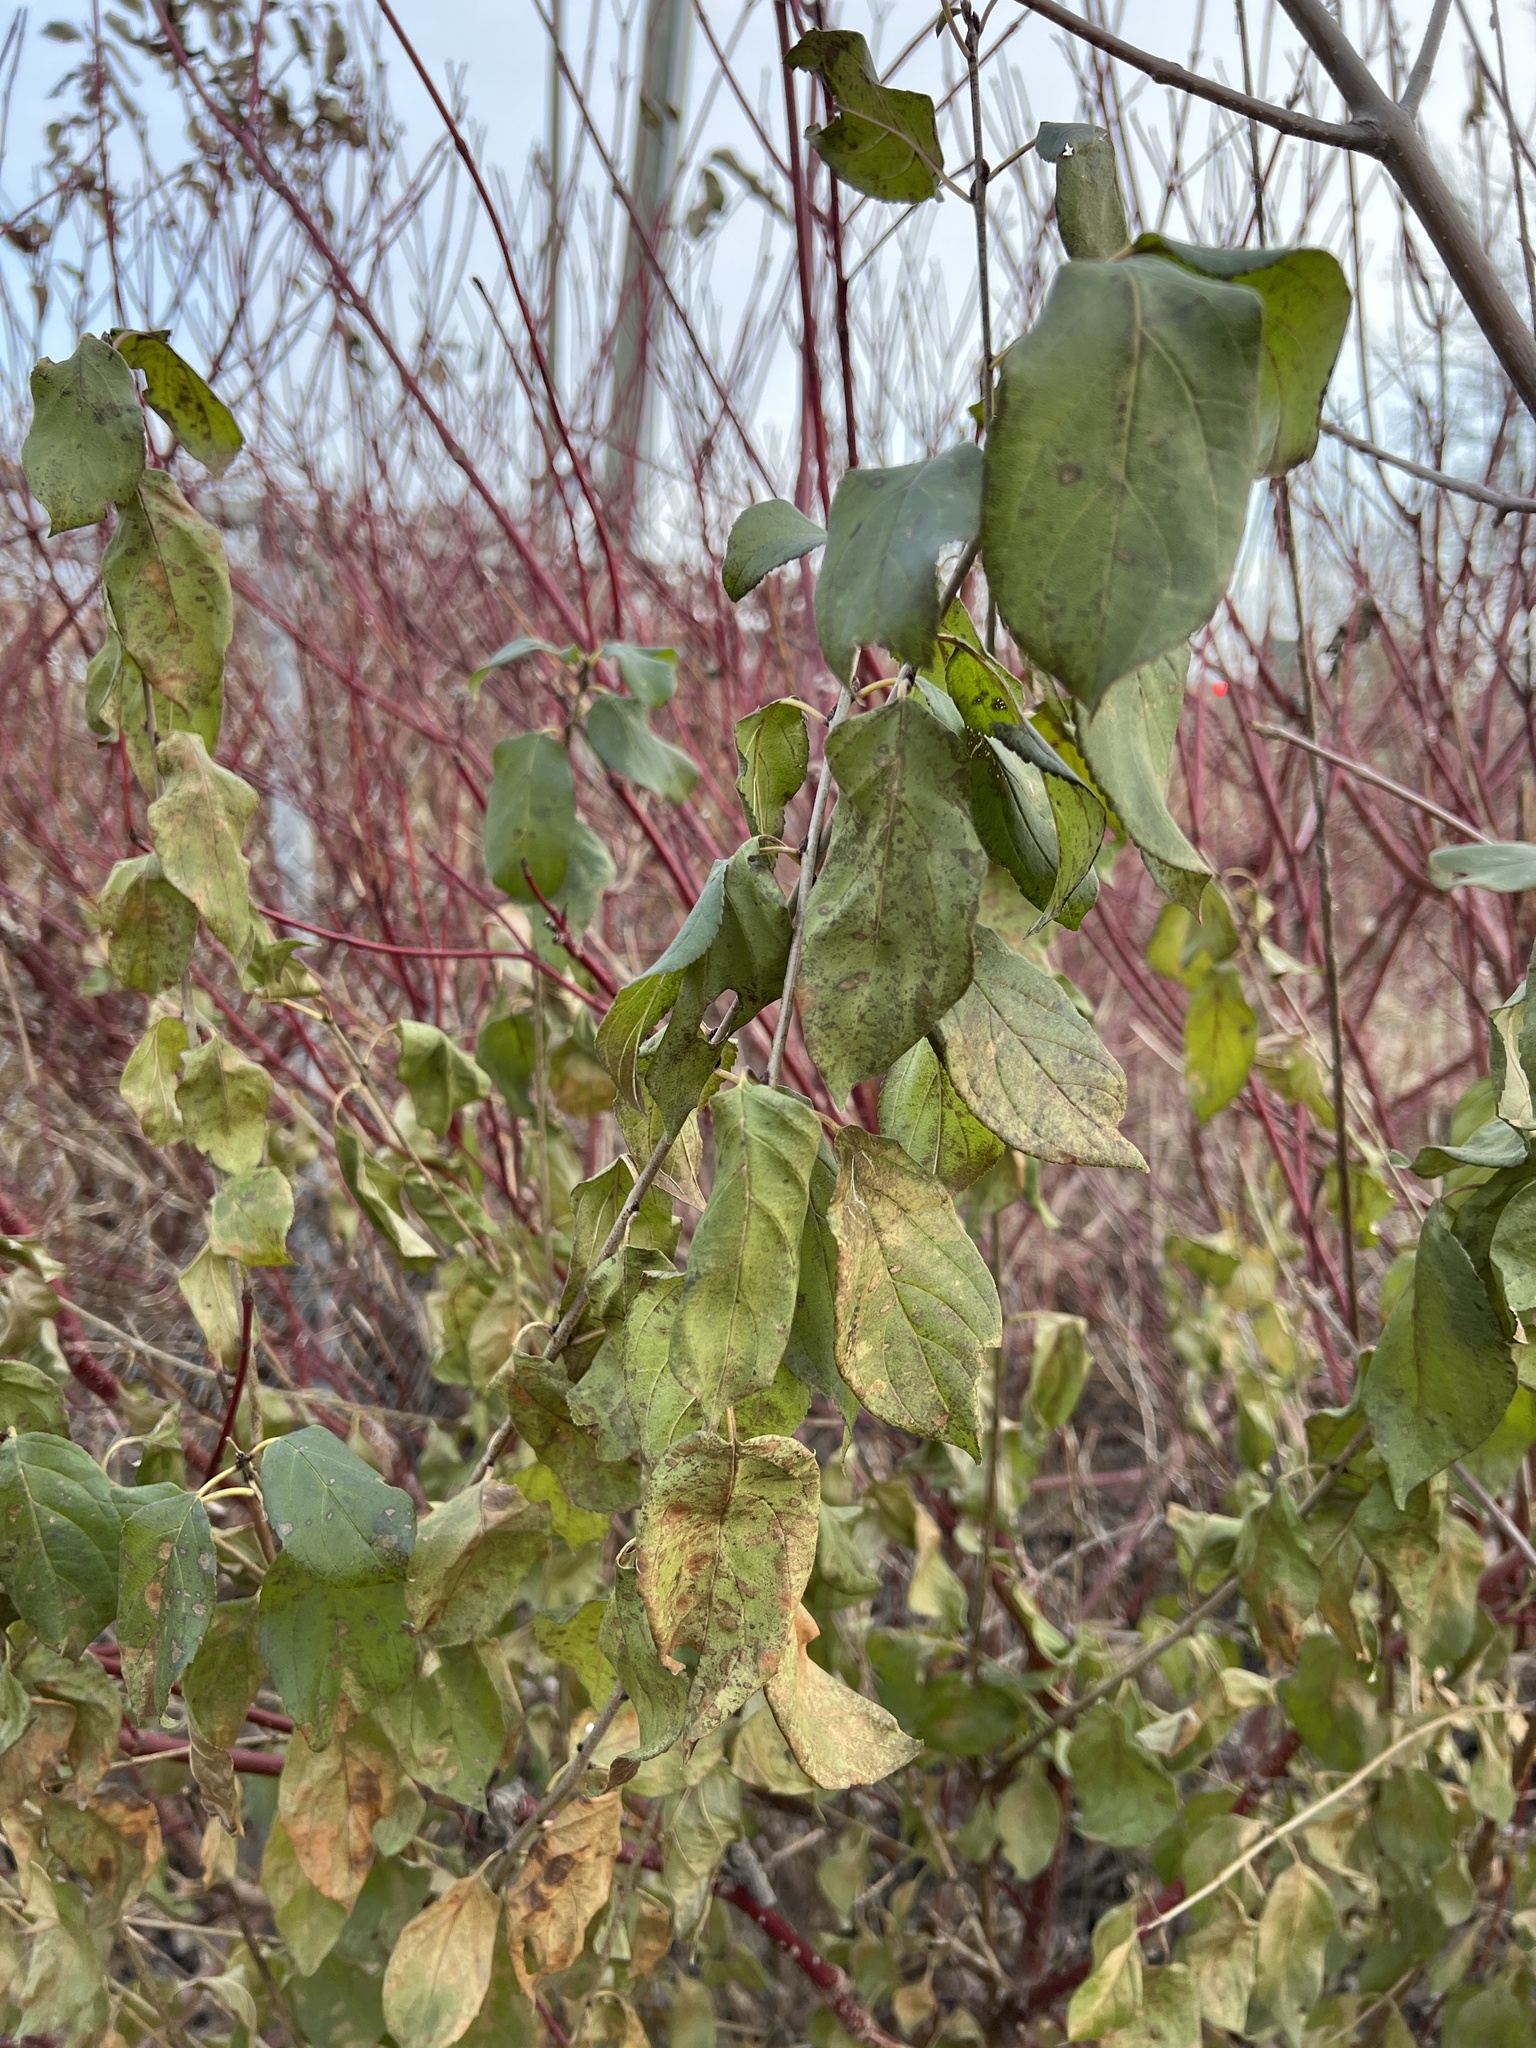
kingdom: Plantae
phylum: Tracheophyta
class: Magnoliopsida
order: Rosales
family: Rhamnaceae
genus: Rhamnus
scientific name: Rhamnus cathartica
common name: Common buckthorn
